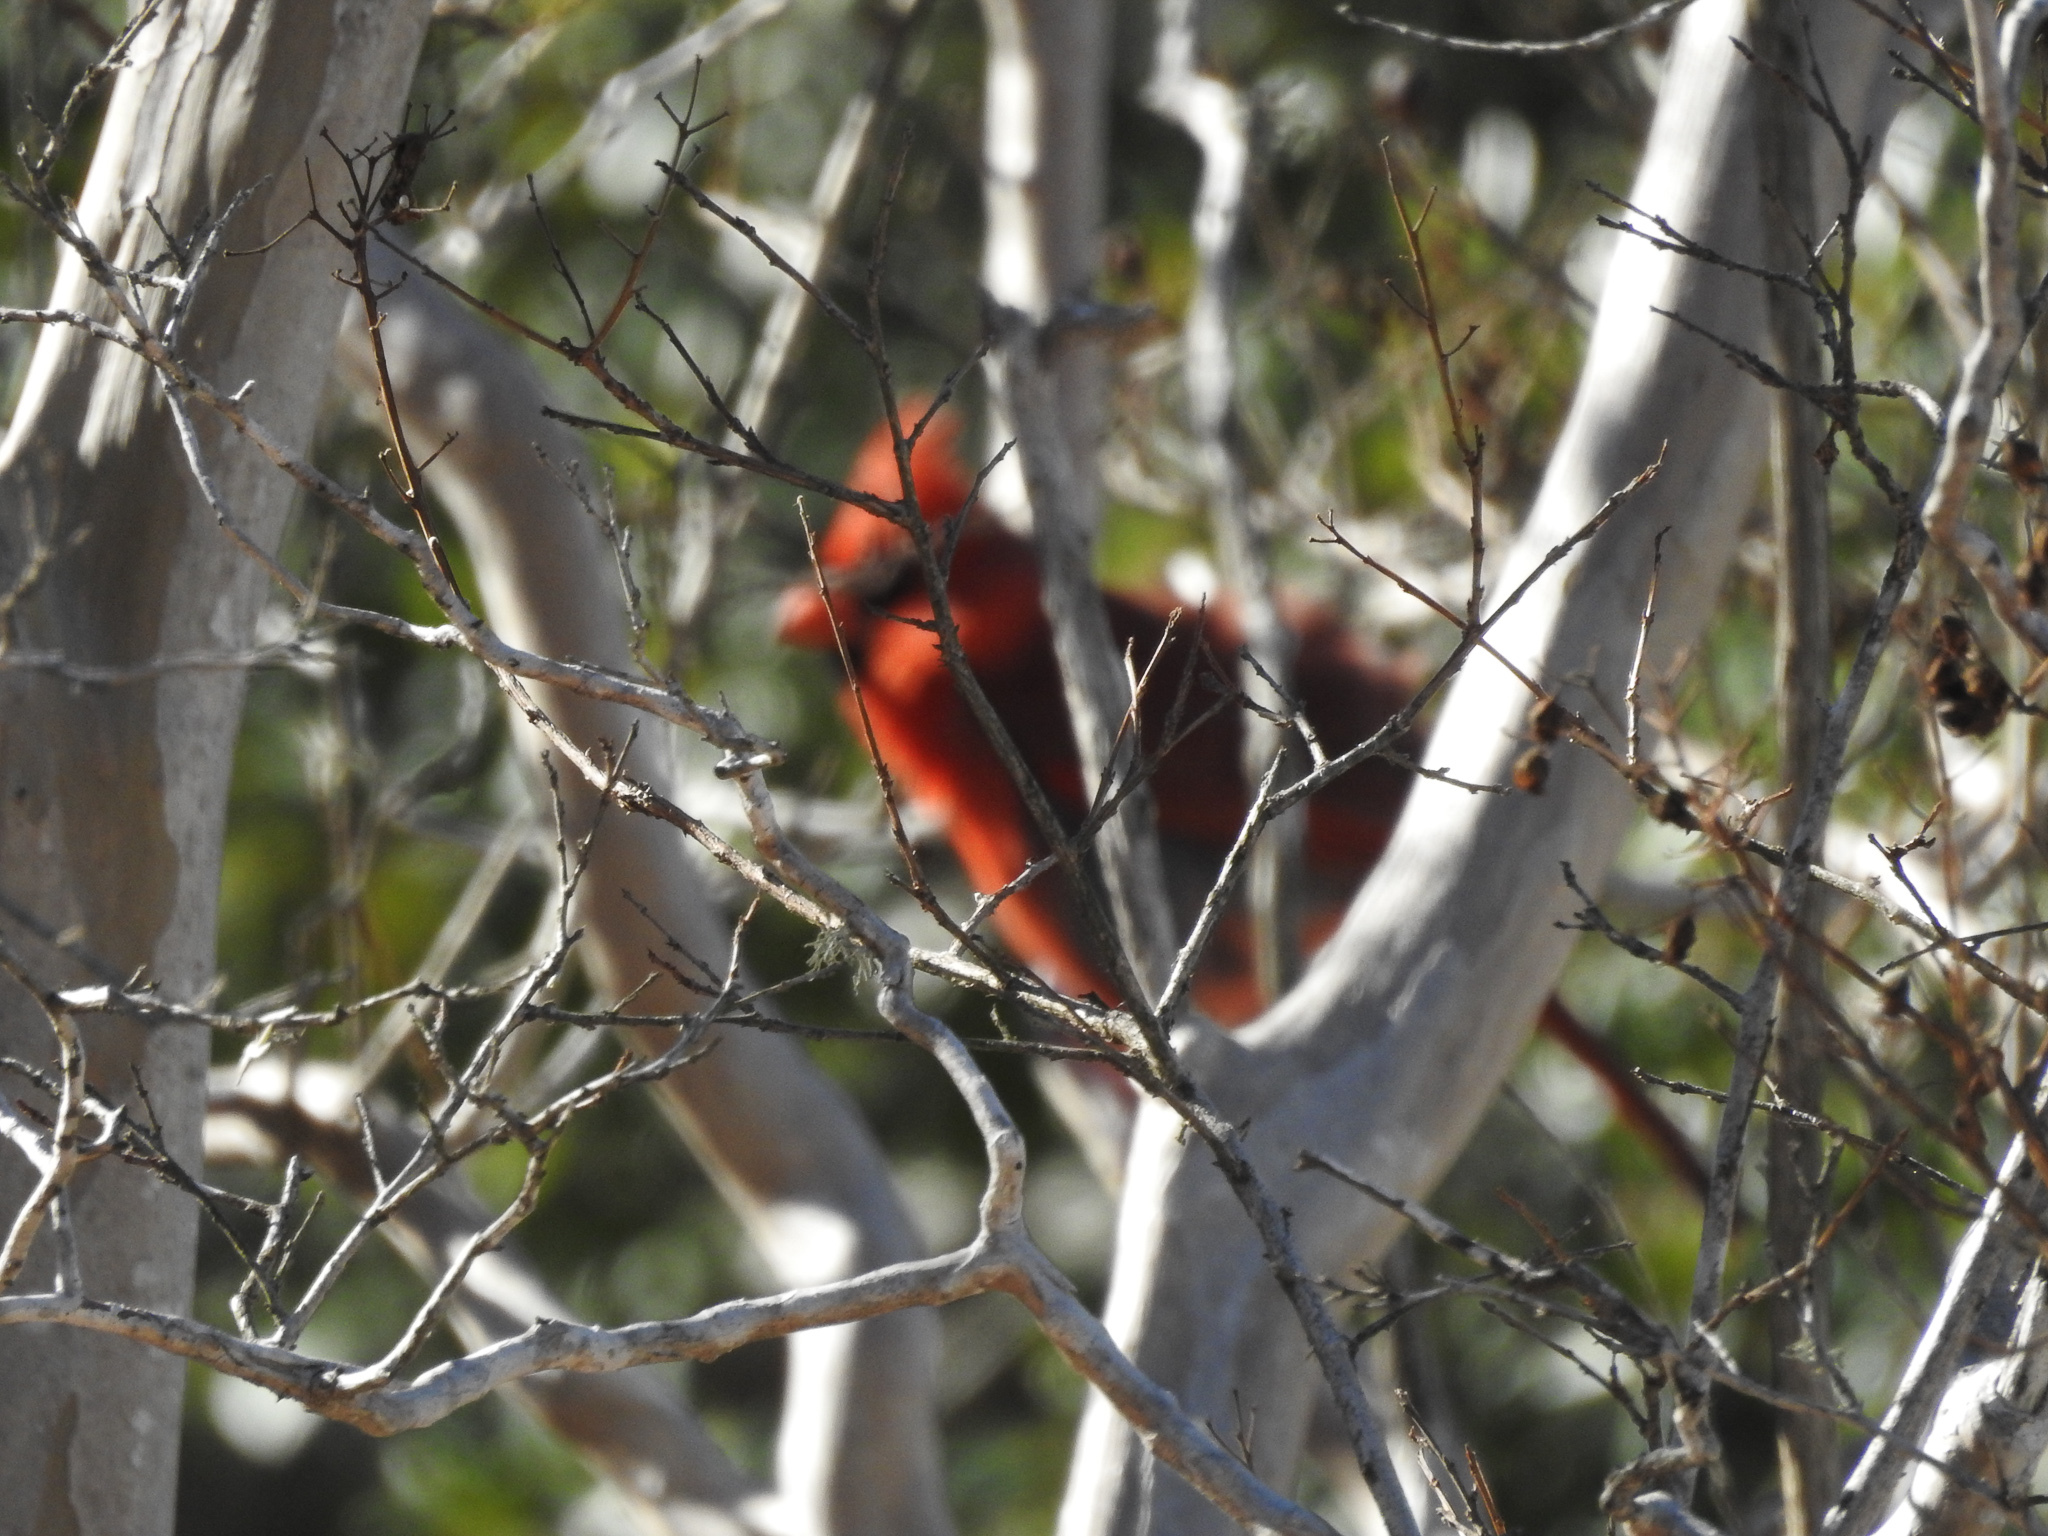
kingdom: Animalia
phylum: Chordata
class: Aves
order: Passeriformes
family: Cardinalidae
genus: Cardinalis
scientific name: Cardinalis cardinalis
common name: Northern cardinal
